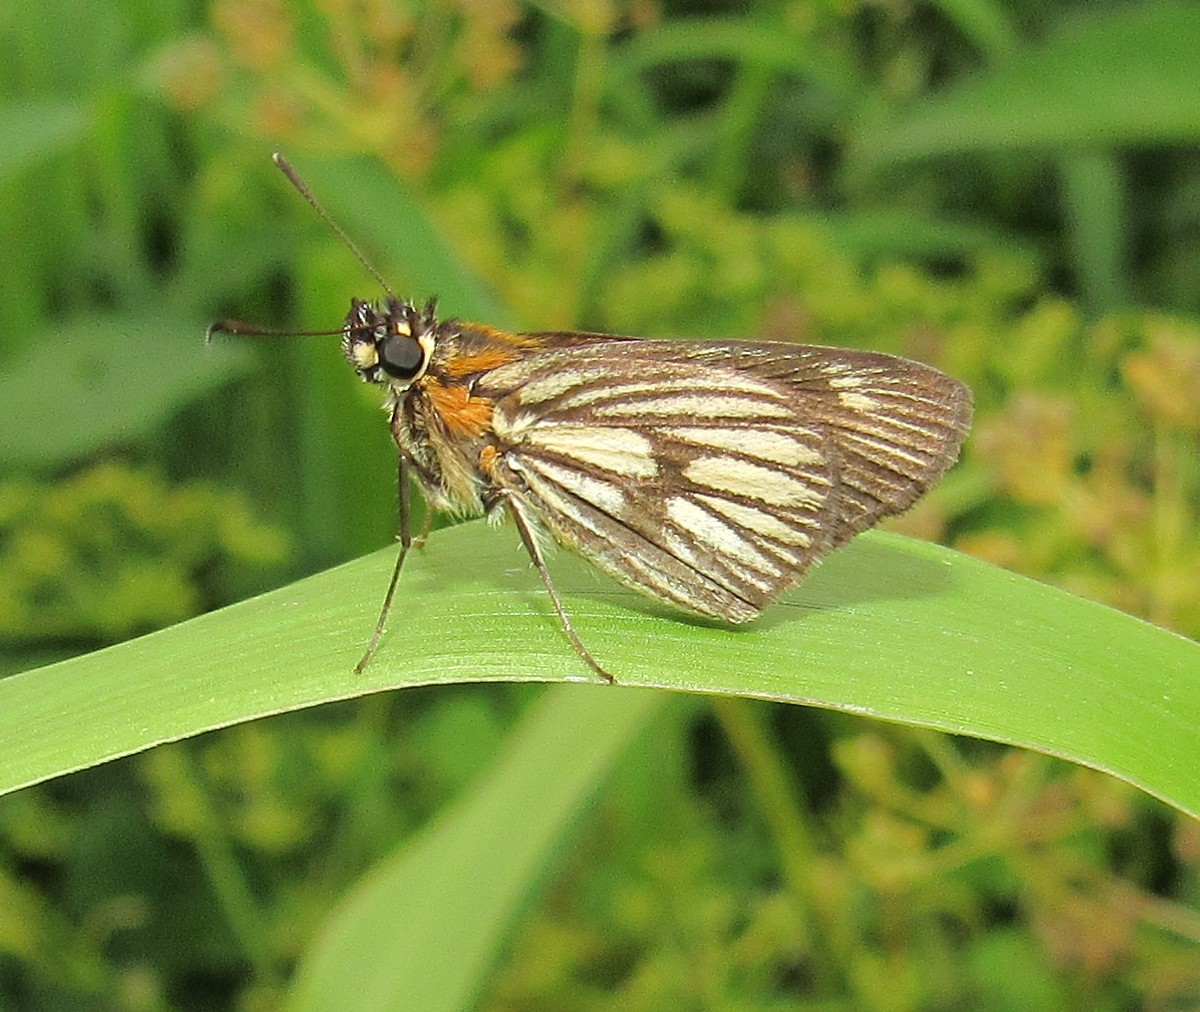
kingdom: Animalia
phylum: Arthropoda
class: Insecta
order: Lepidoptera
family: Hesperiidae
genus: Vehilius
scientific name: Vehilius clavicula
